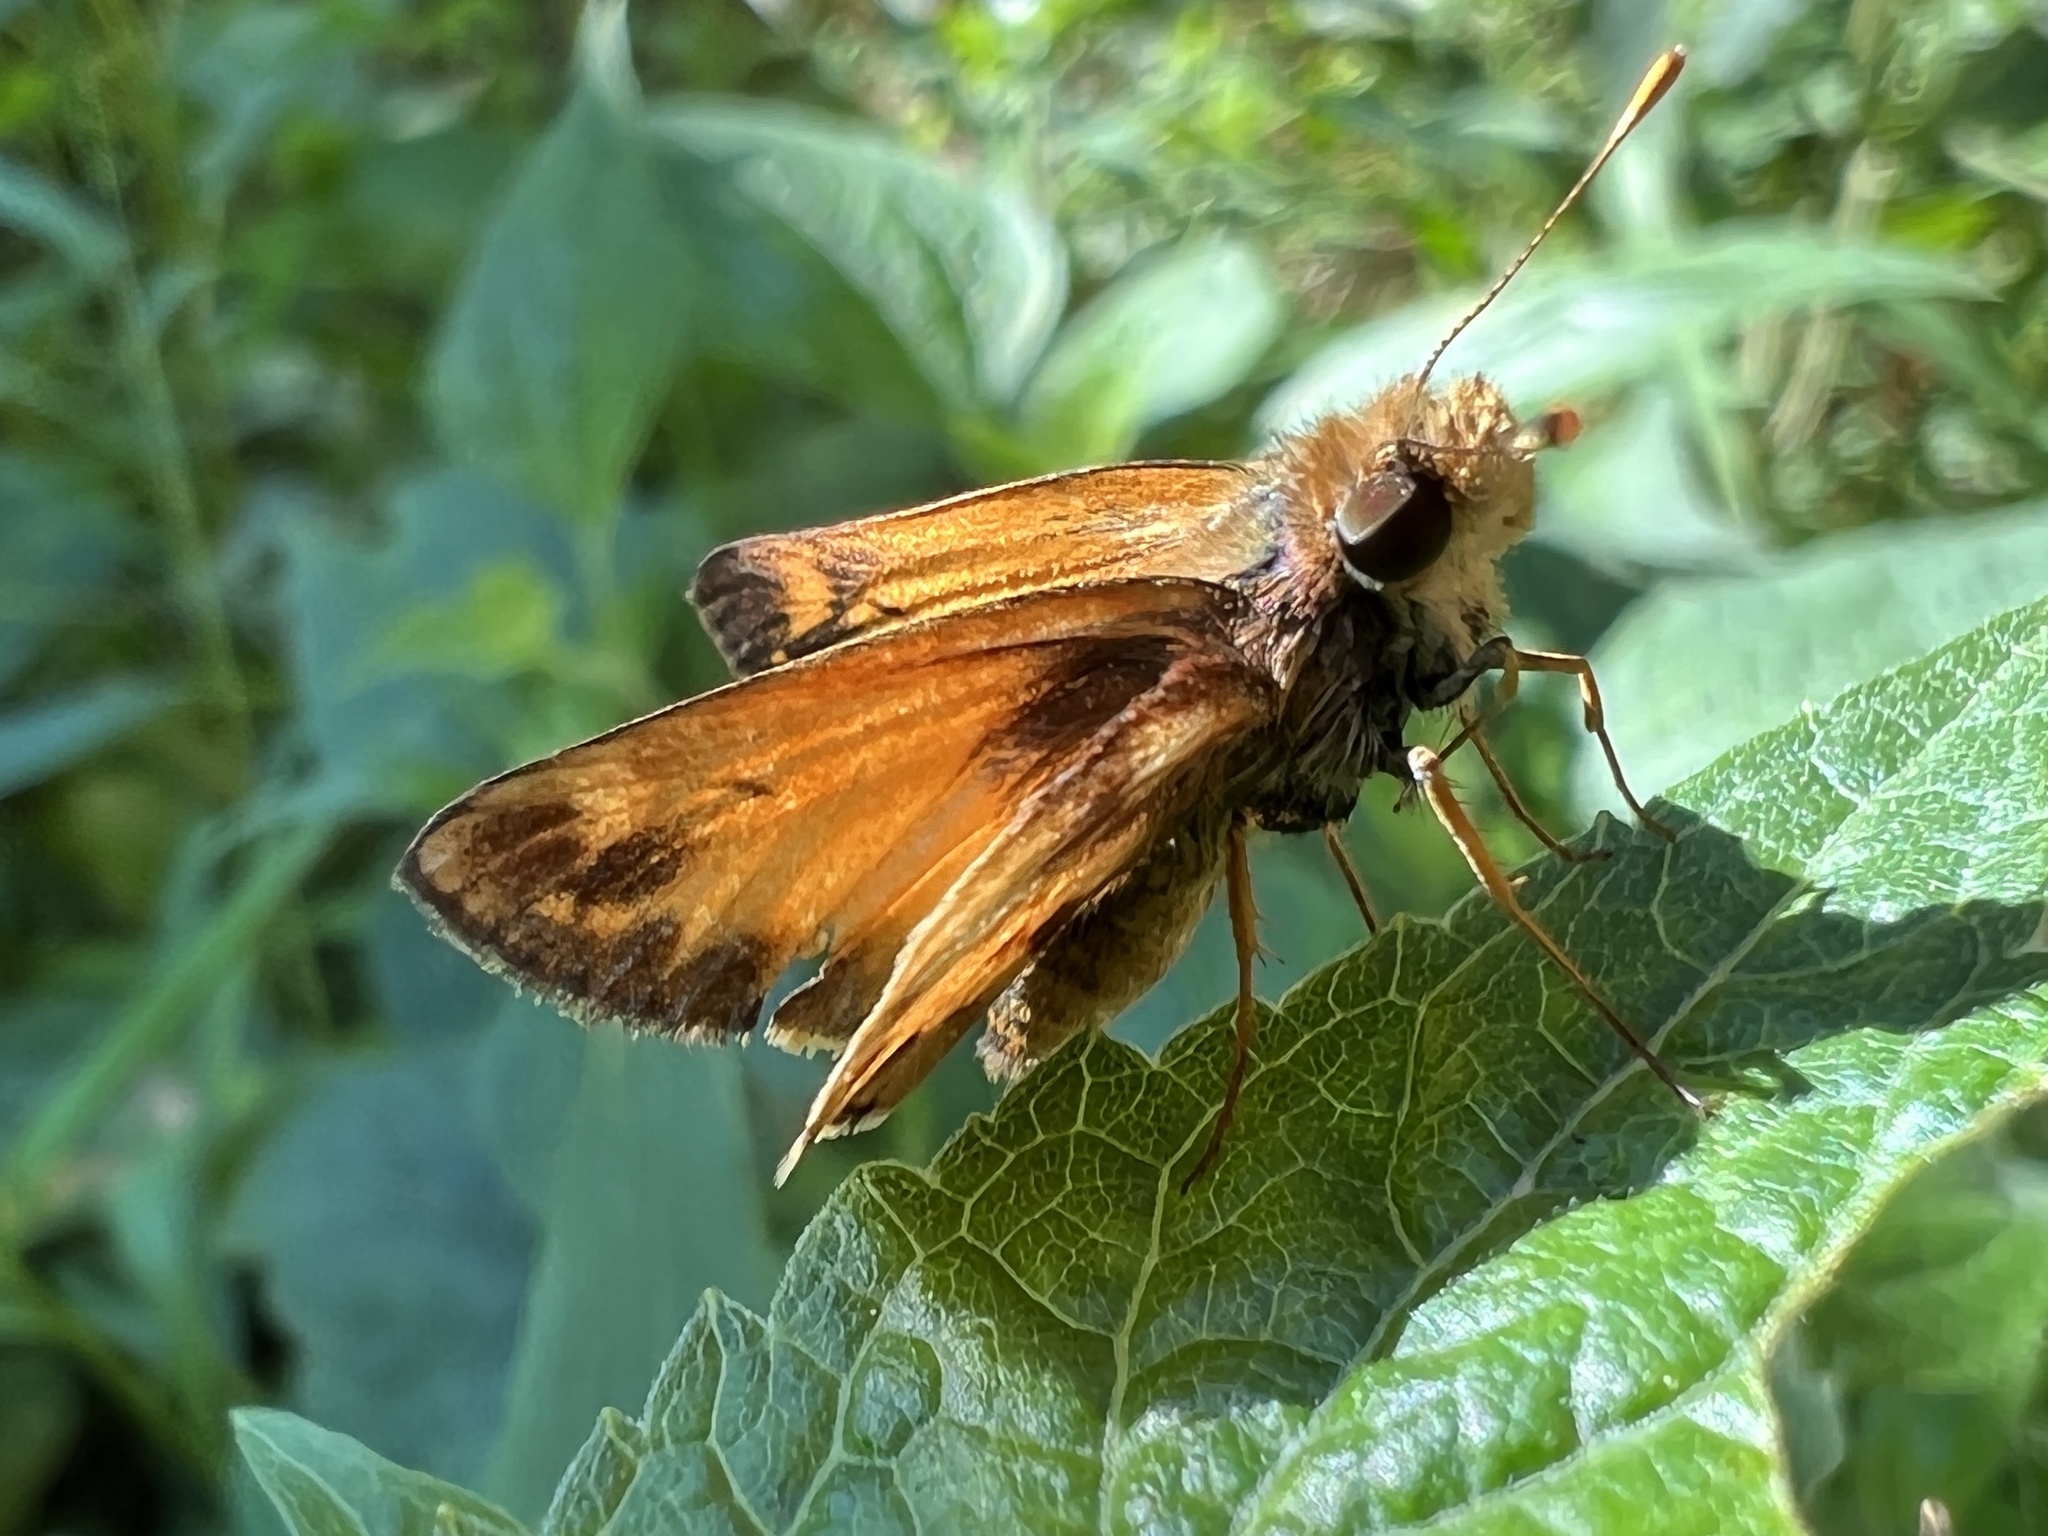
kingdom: Animalia
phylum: Arthropoda
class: Insecta
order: Lepidoptera
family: Hesperiidae
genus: Lon
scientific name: Lon zabulon
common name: Zabulon skipper
